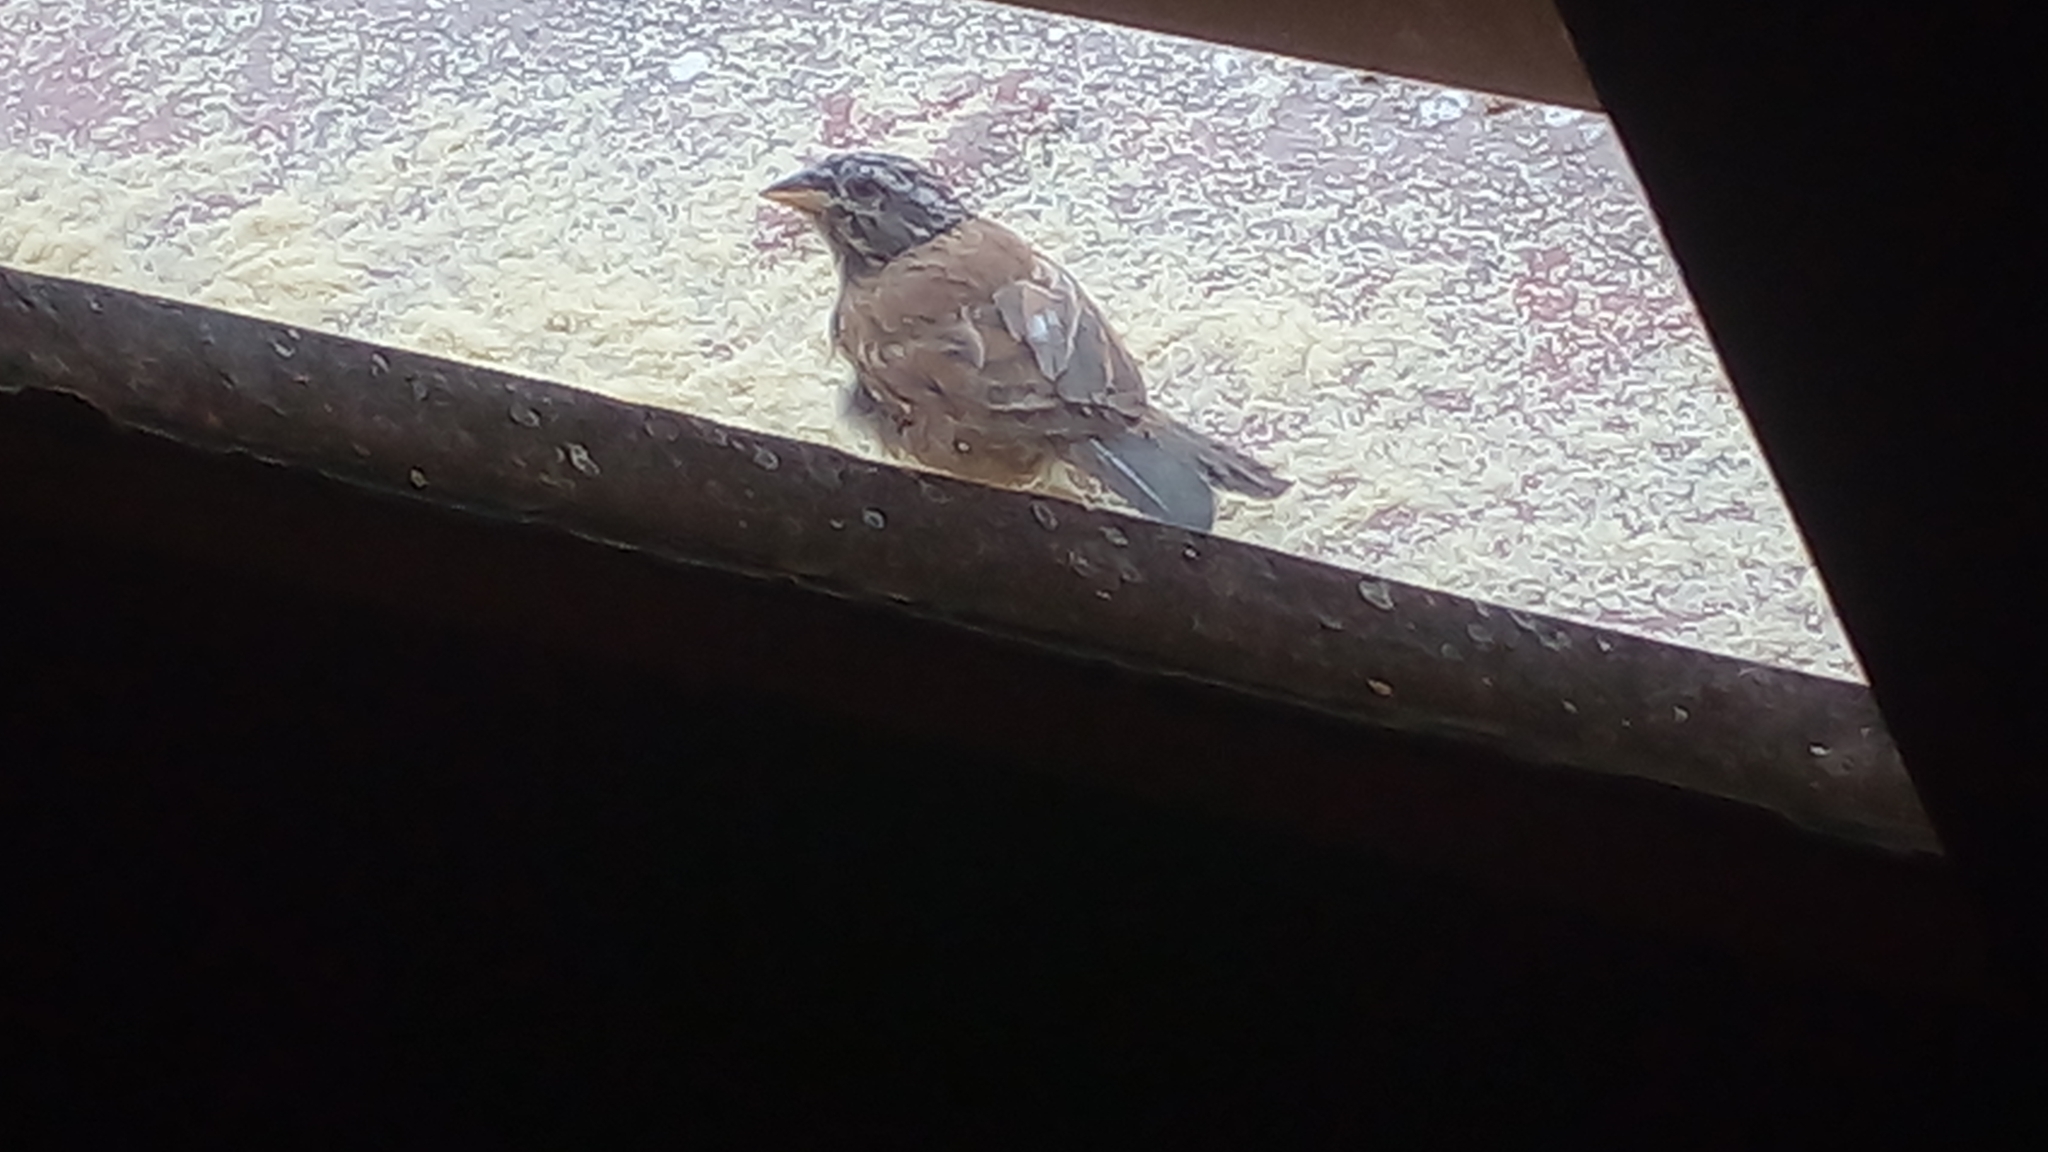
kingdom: Animalia
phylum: Chordata
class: Aves
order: Passeriformes
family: Emberizidae
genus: Emberiza
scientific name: Emberiza sahari
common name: House bunting
